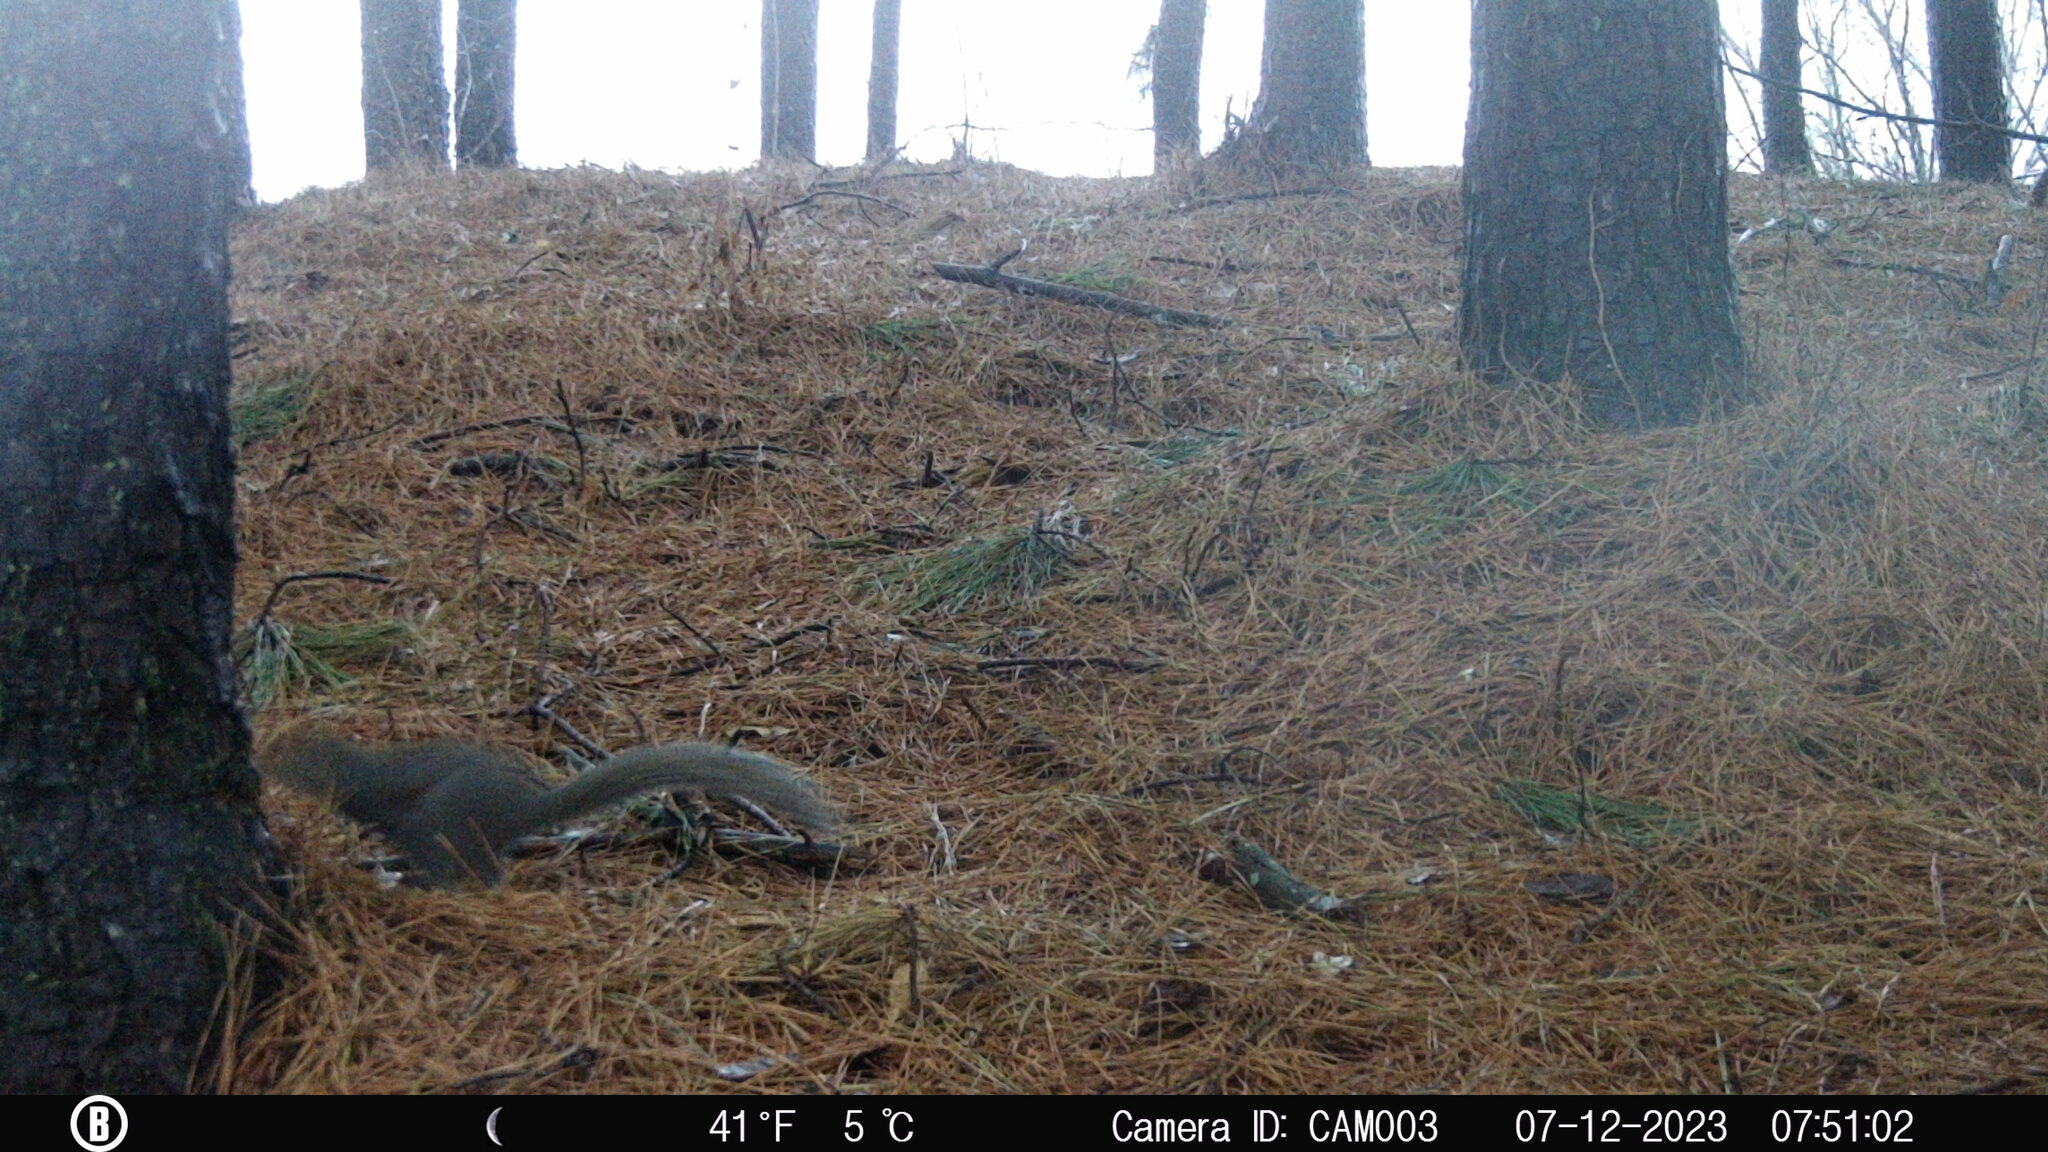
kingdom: Animalia
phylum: Chordata
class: Mammalia
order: Rodentia
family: Sciuridae
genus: Sciurus
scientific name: Sciurus carolinensis
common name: Eastern gray squirrel
